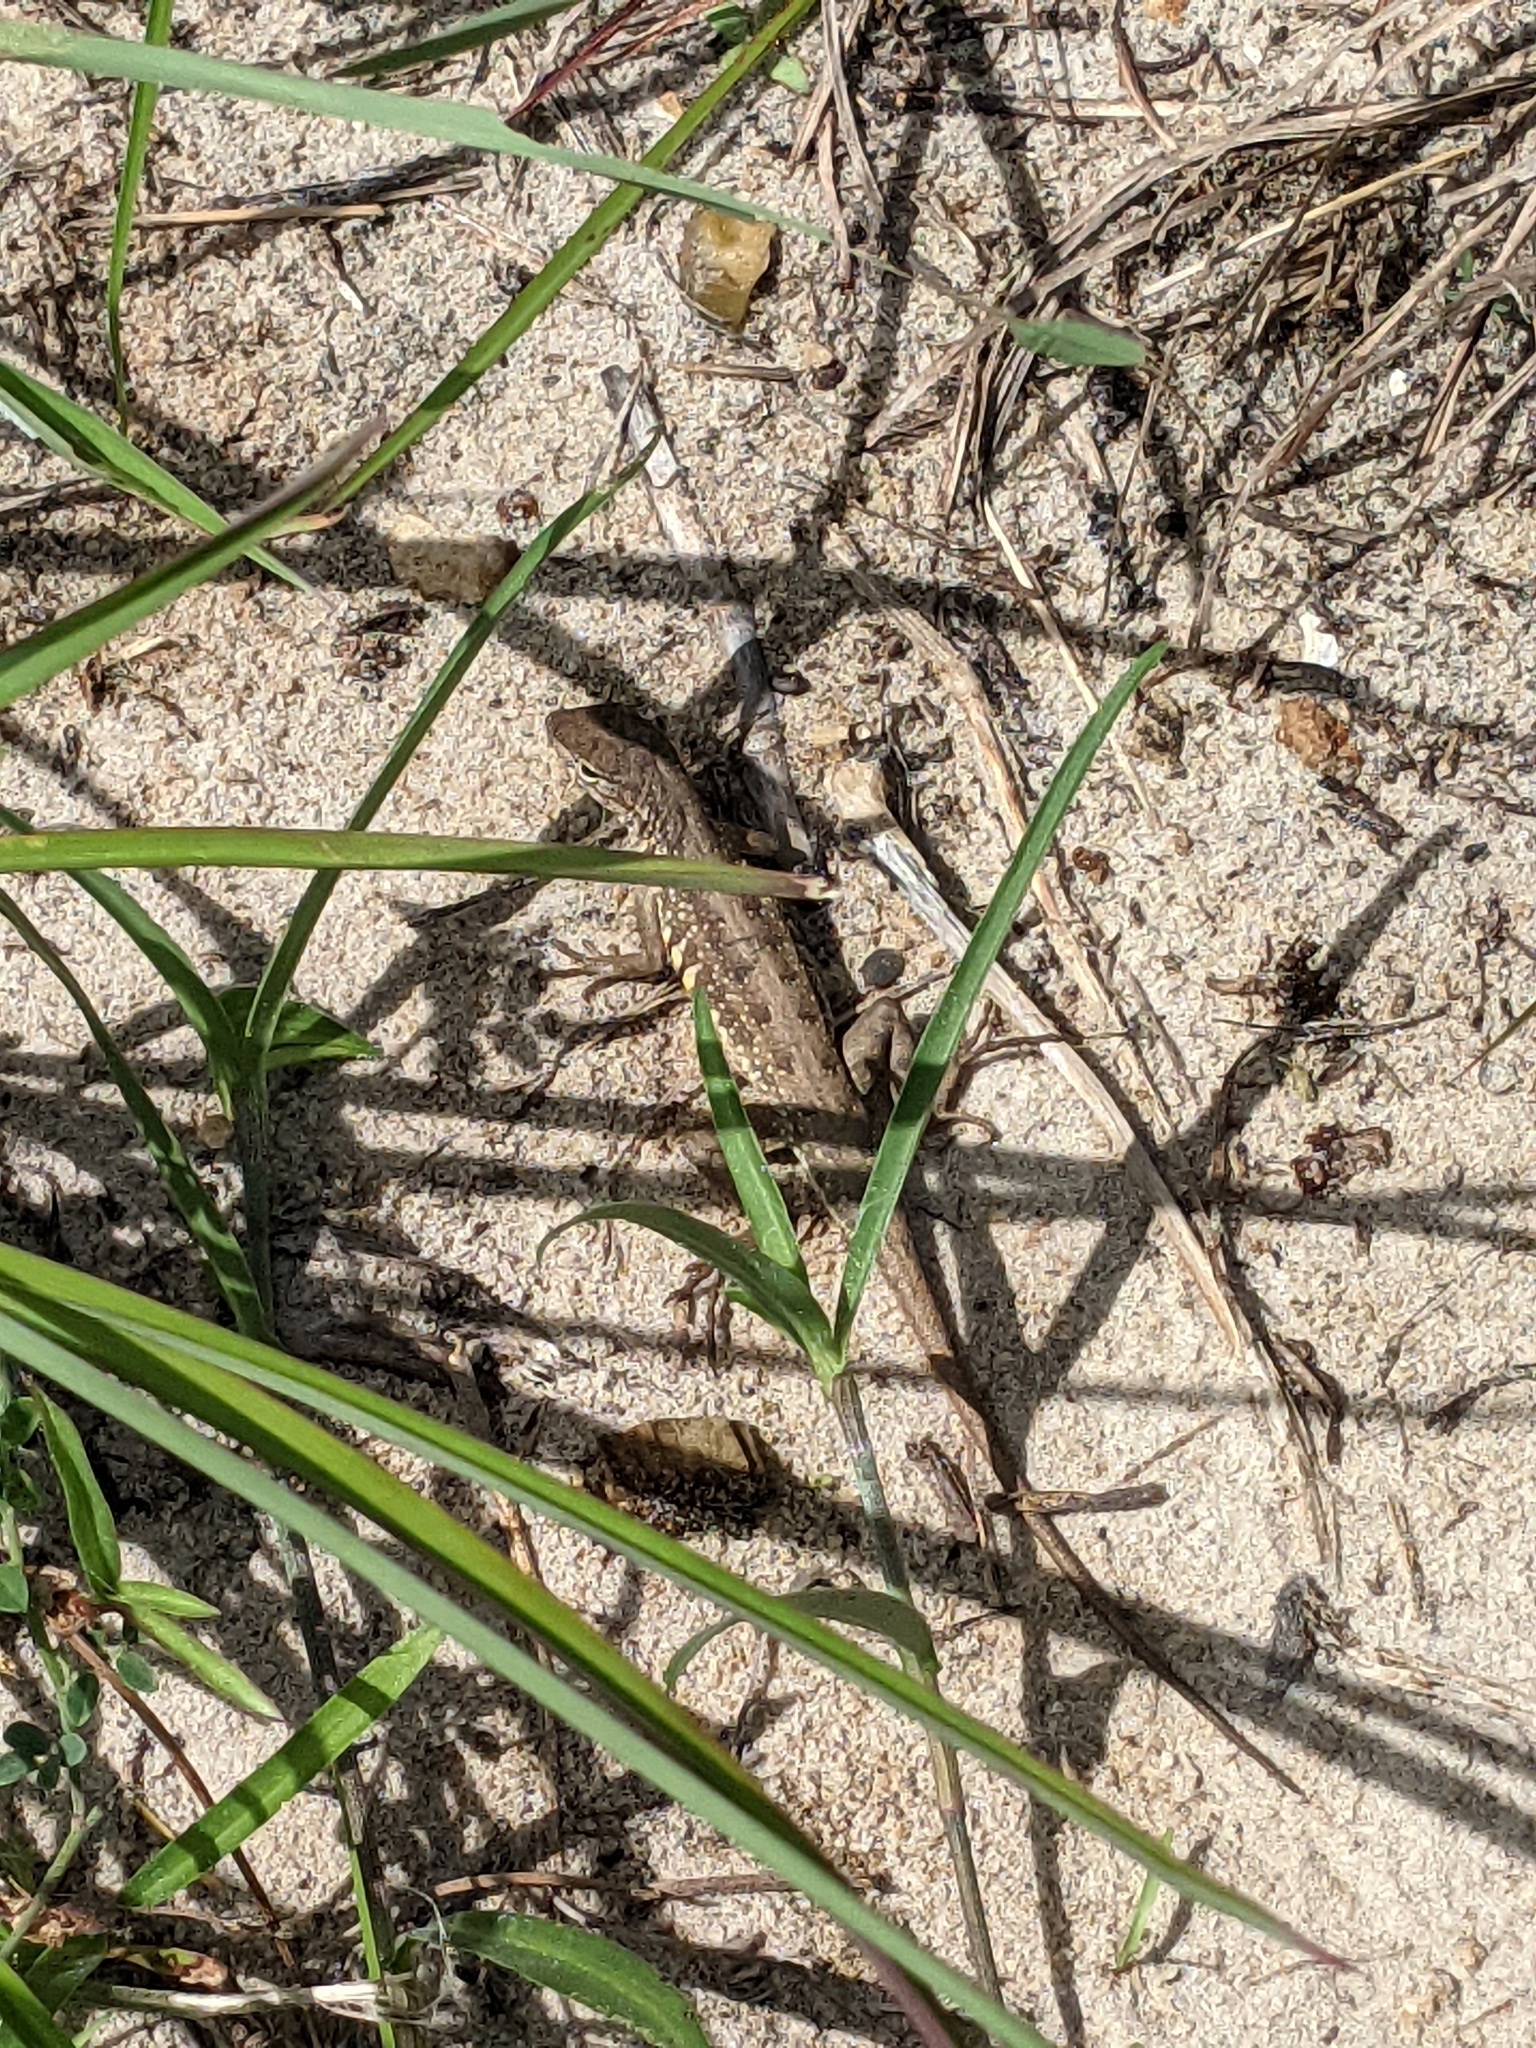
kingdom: Animalia
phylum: Chordata
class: Squamata
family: Phrynosomatidae
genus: Holbrookia
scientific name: Holbrookia propinqua
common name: Keeled earless lizard
